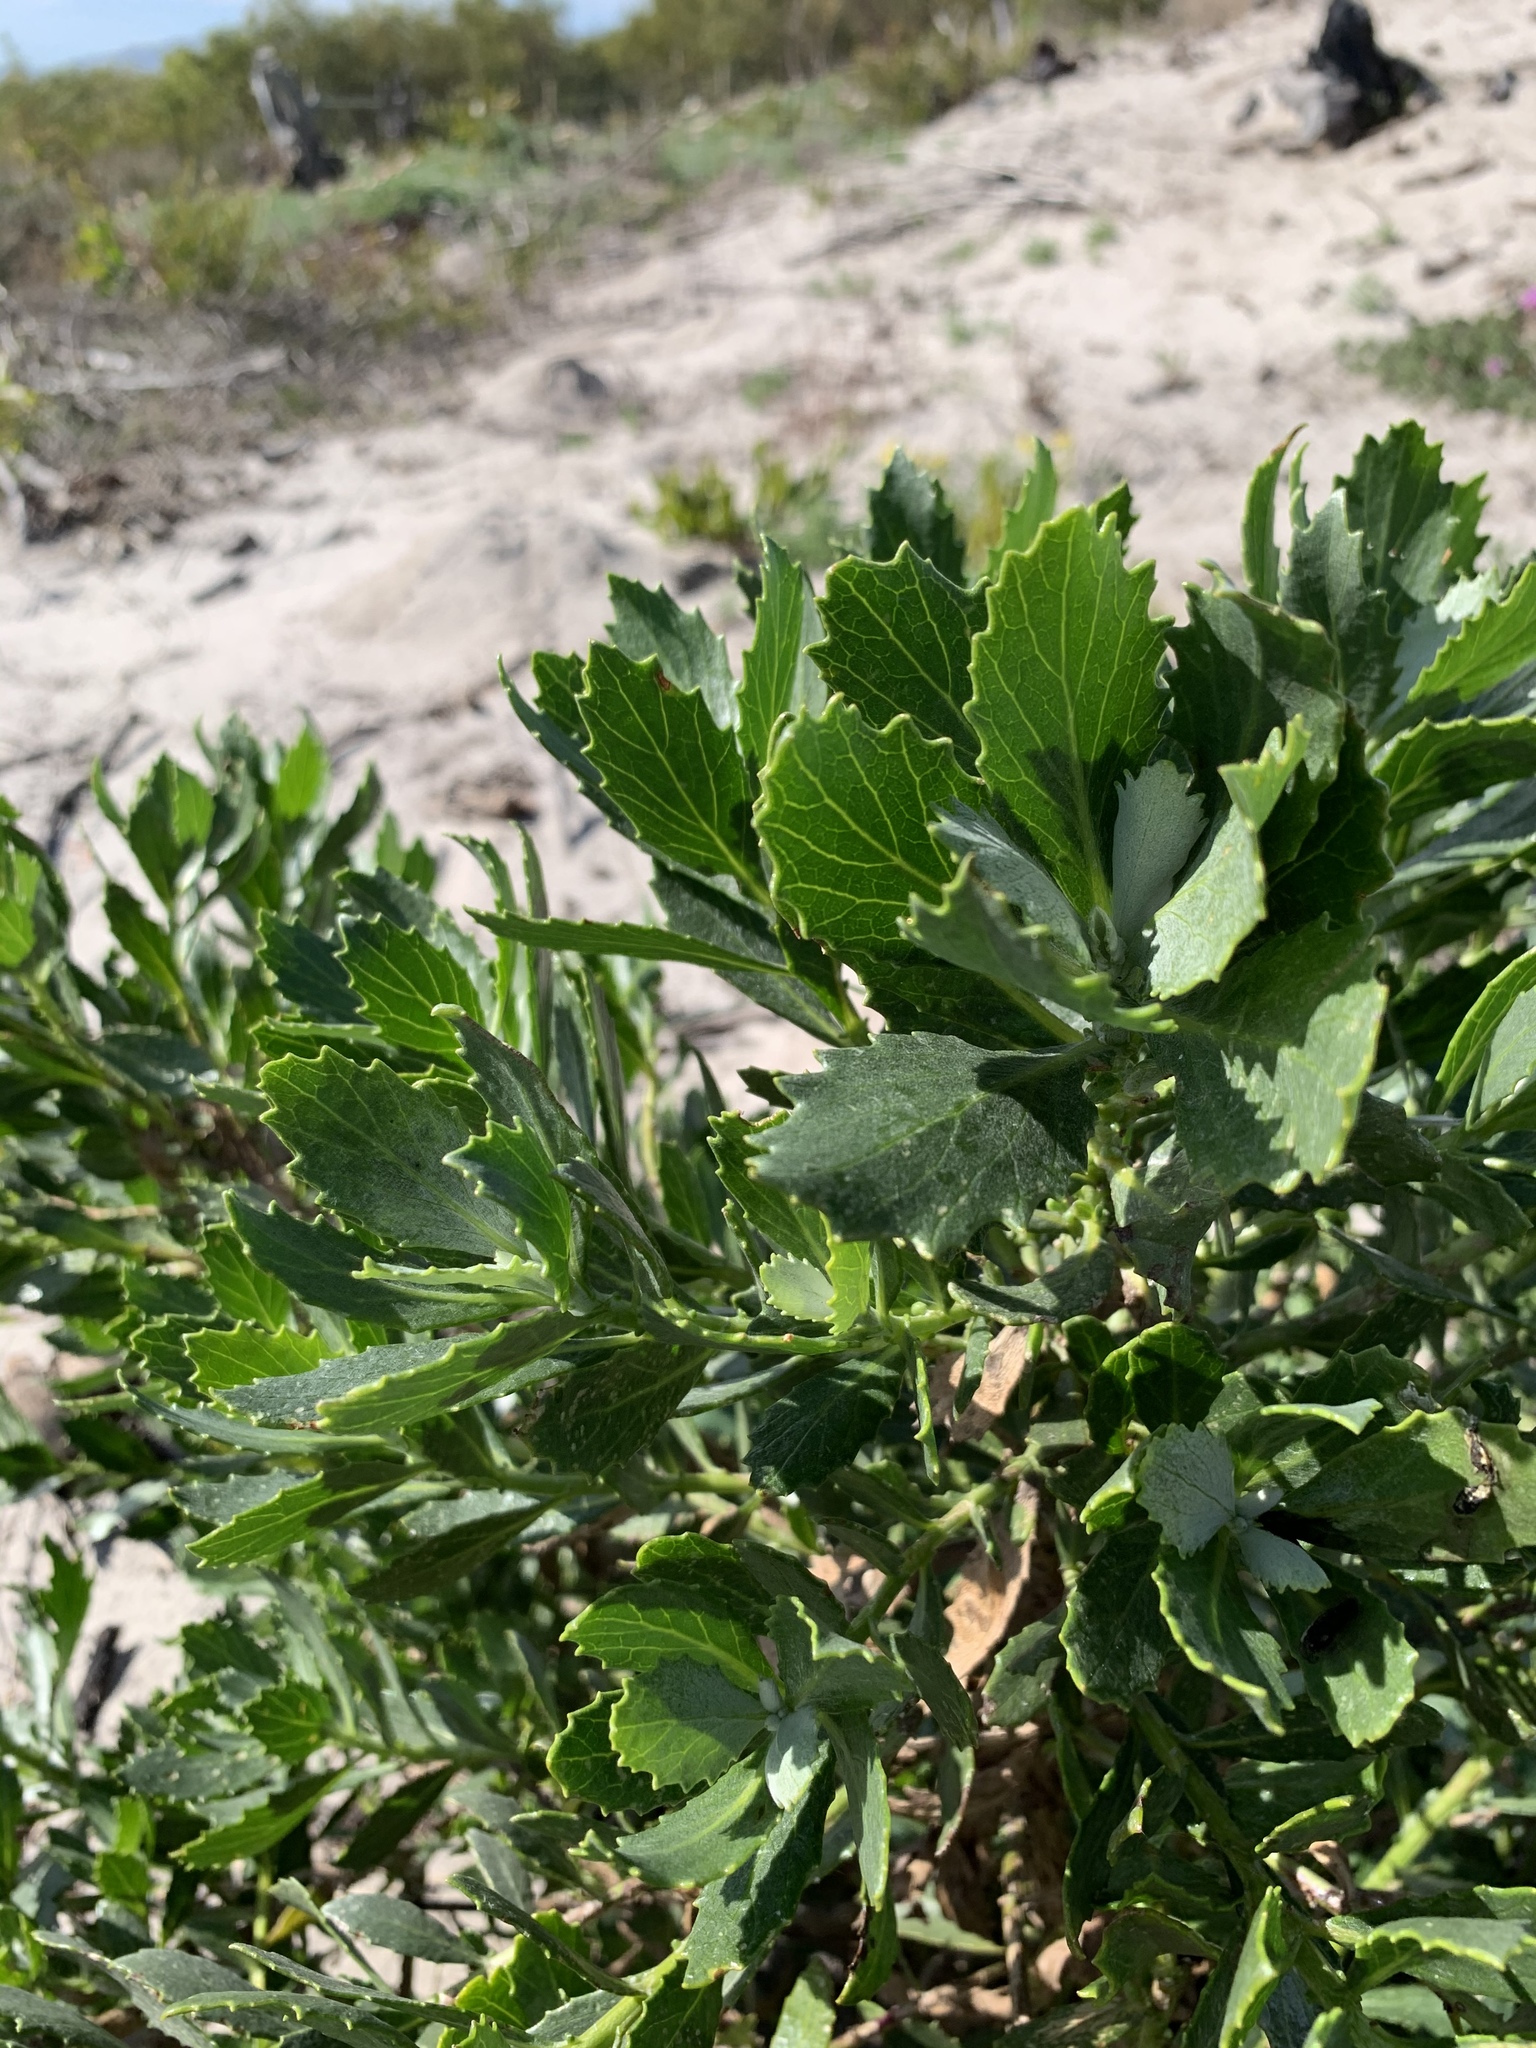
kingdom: Plantae
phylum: Tracheophyta
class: Magnoliopsida
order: Asterales
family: Asteraceae
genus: Senecio
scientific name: Senecio halimifolius
